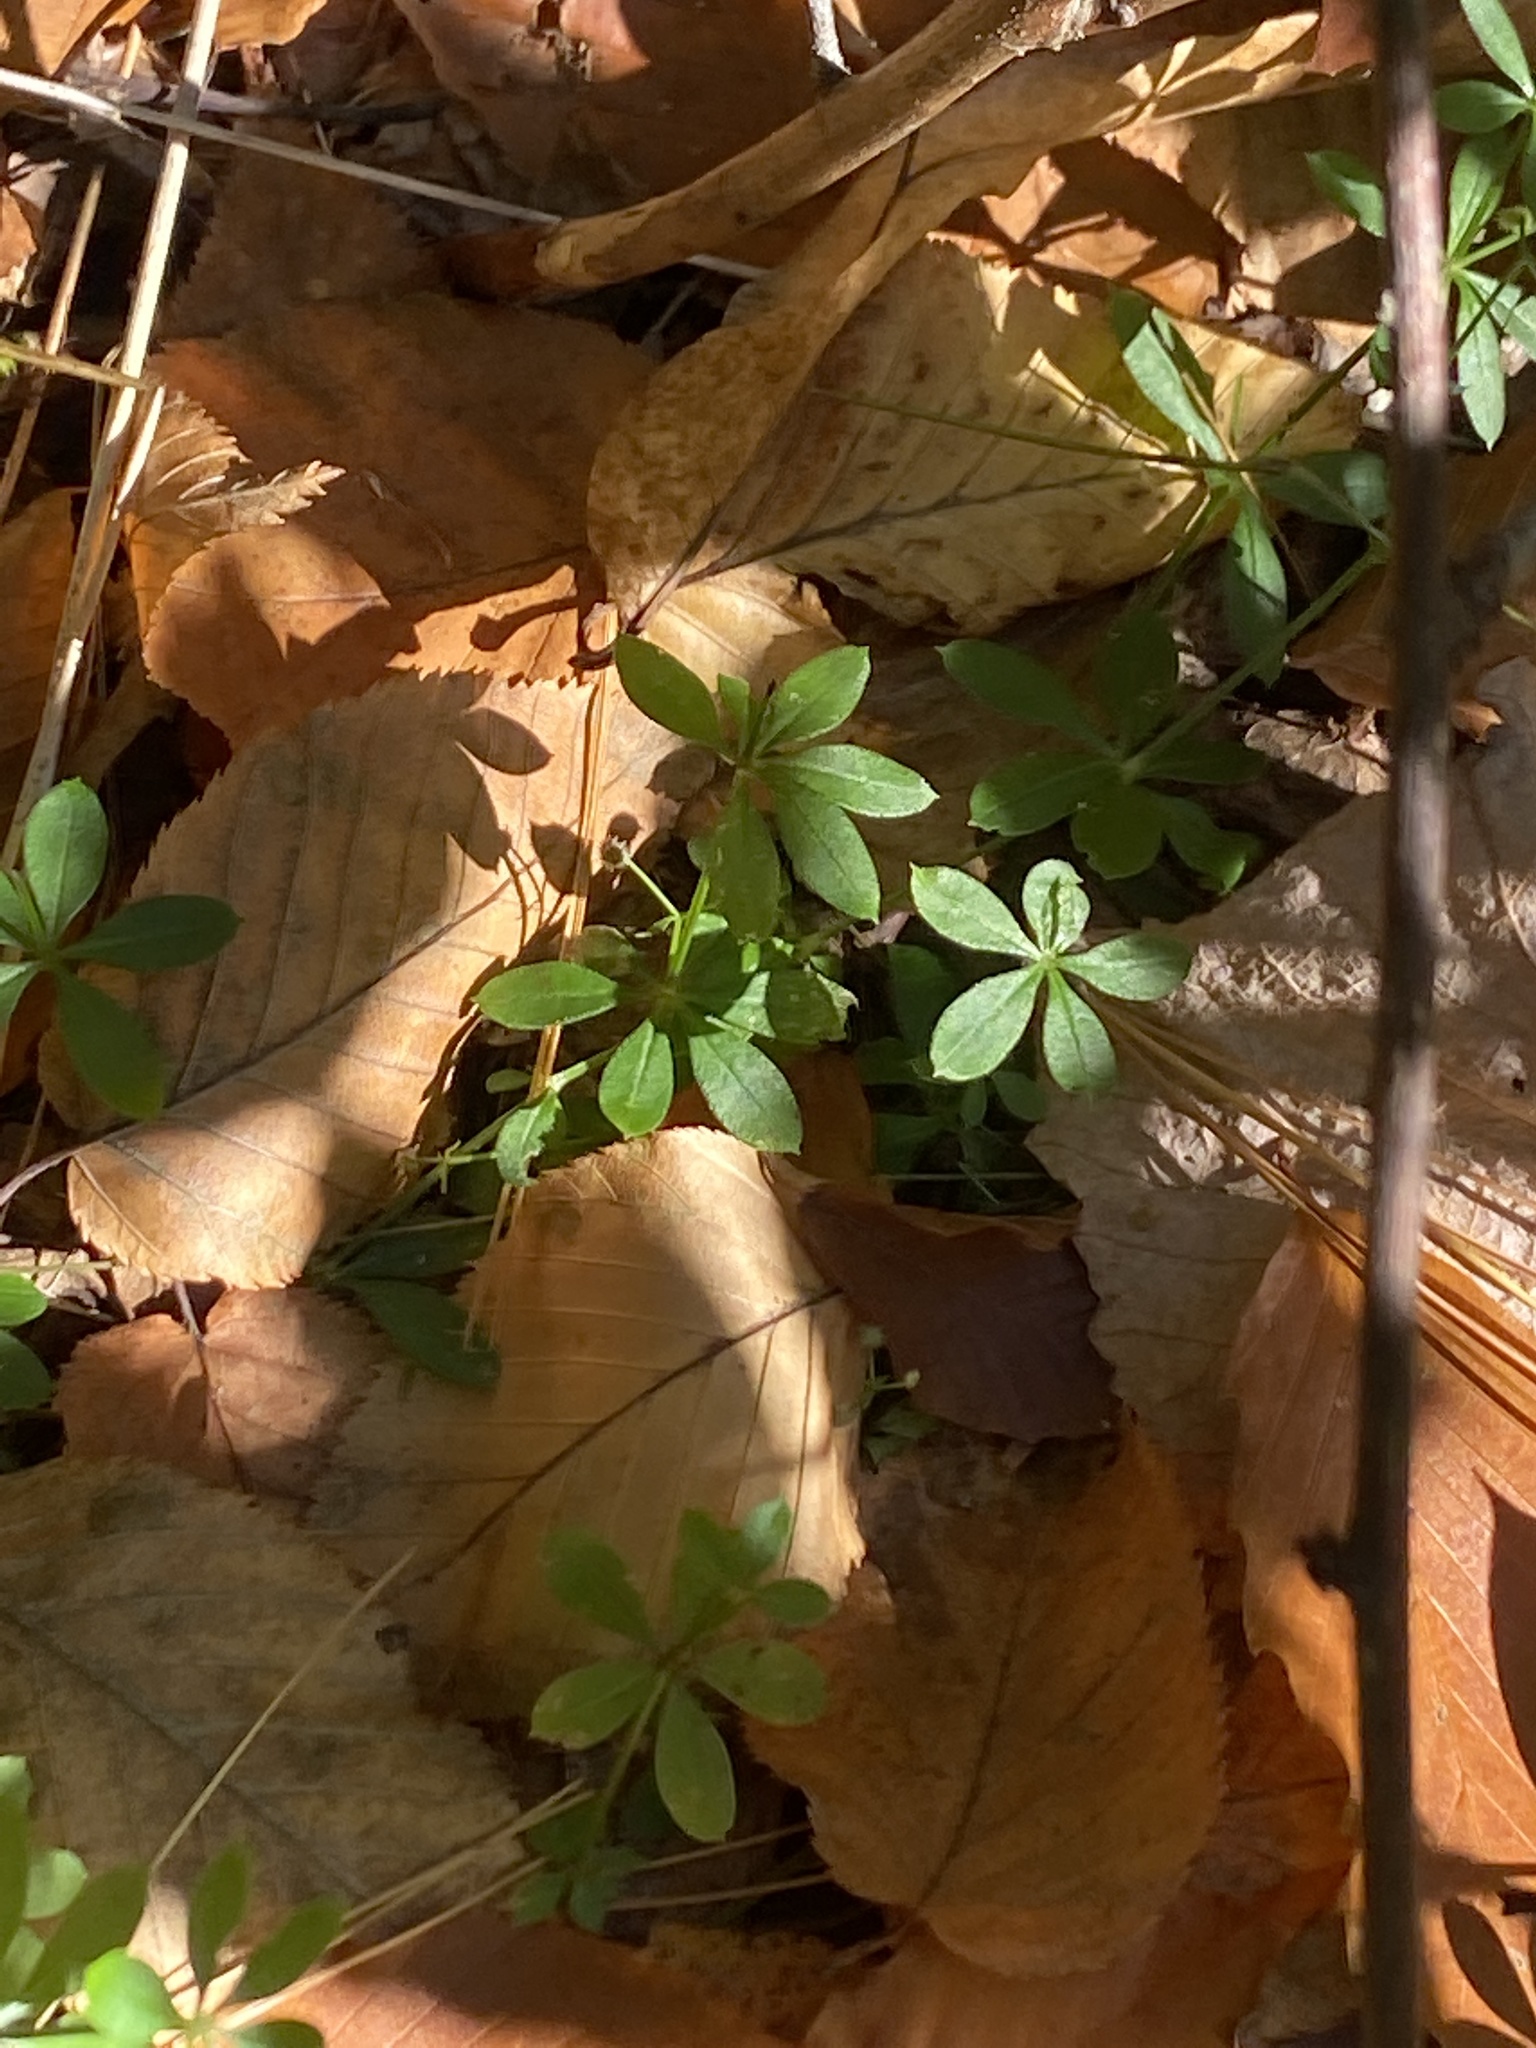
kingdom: Plantae
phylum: Tracheophyta
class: Magnoliopsida
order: Gentianales
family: Rubiaceae
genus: Galium
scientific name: Galium triflorum
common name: Fragrant bedstraw
